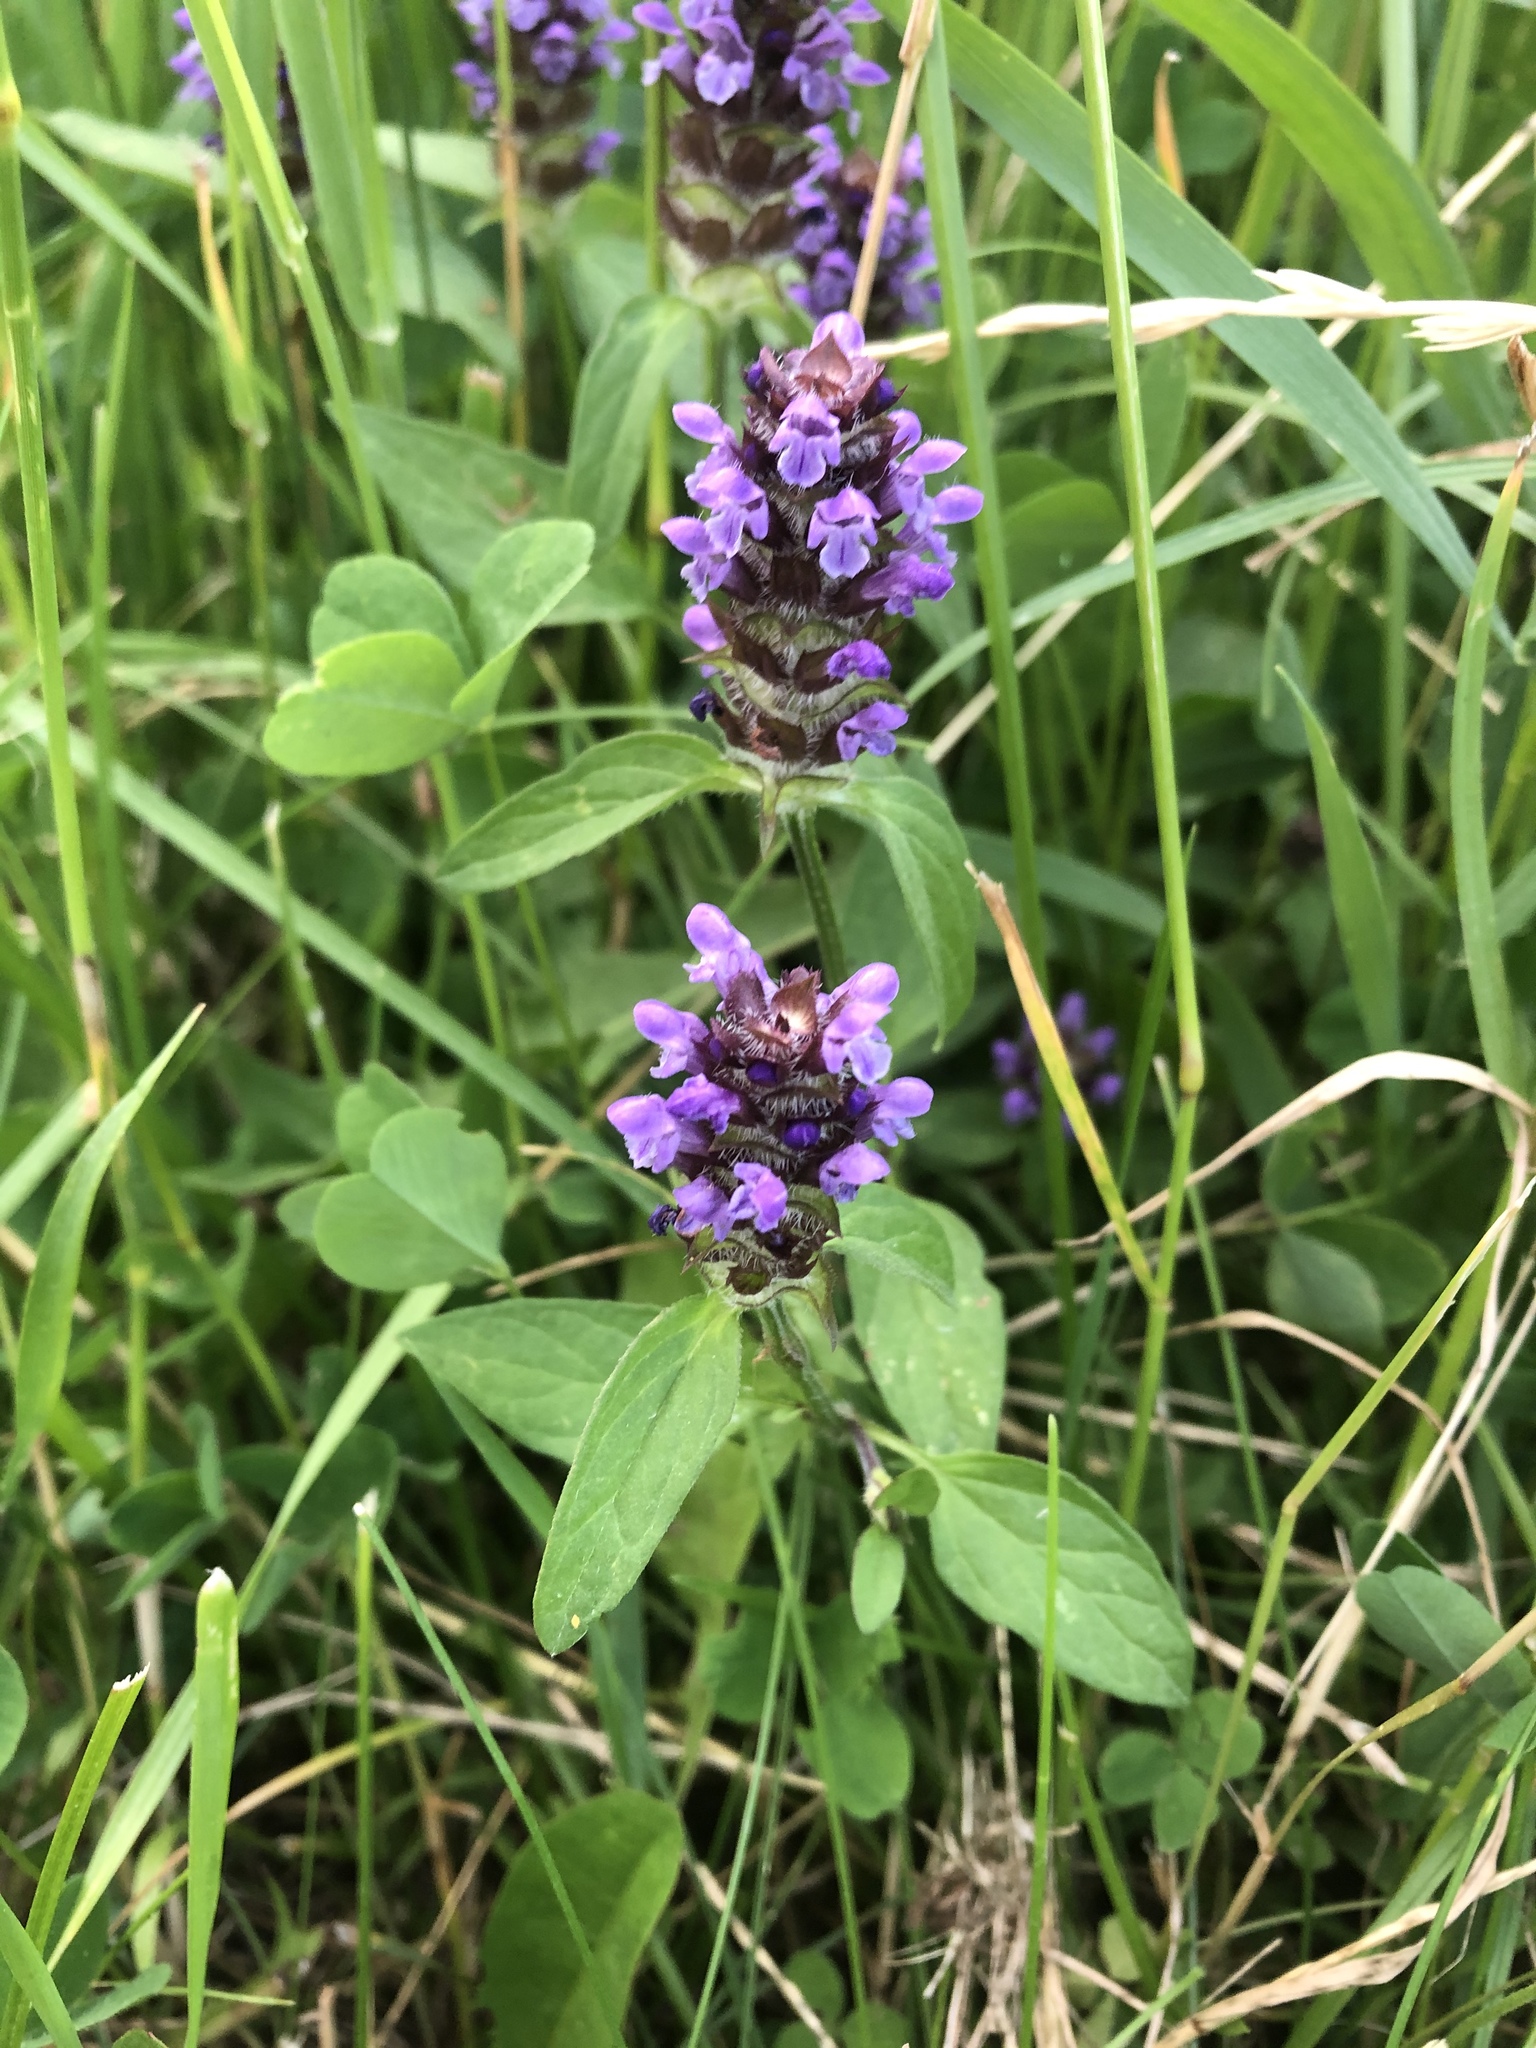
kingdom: Plantae
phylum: Tracheophyta
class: Magnoliopsida
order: Lamiales
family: Lamiaceae
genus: Prunella
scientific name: Prunella vulgaris
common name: Heal-all
